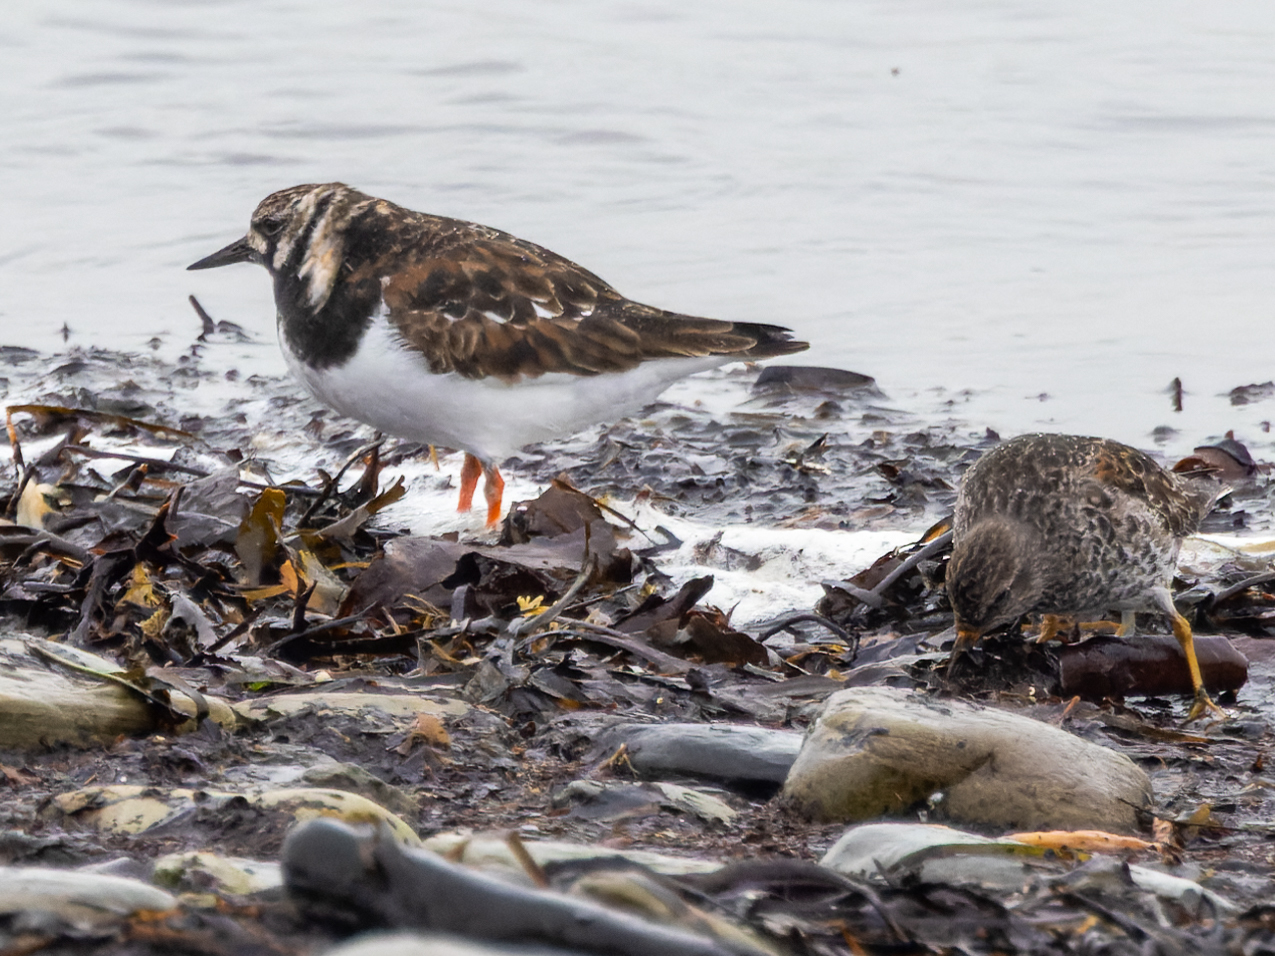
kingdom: Animalia
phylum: Chordata
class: Aves
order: Charadriiformes
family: Scolopacidae
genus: Arenaria
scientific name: Arenaria interpres
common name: Ruddy turnstone
